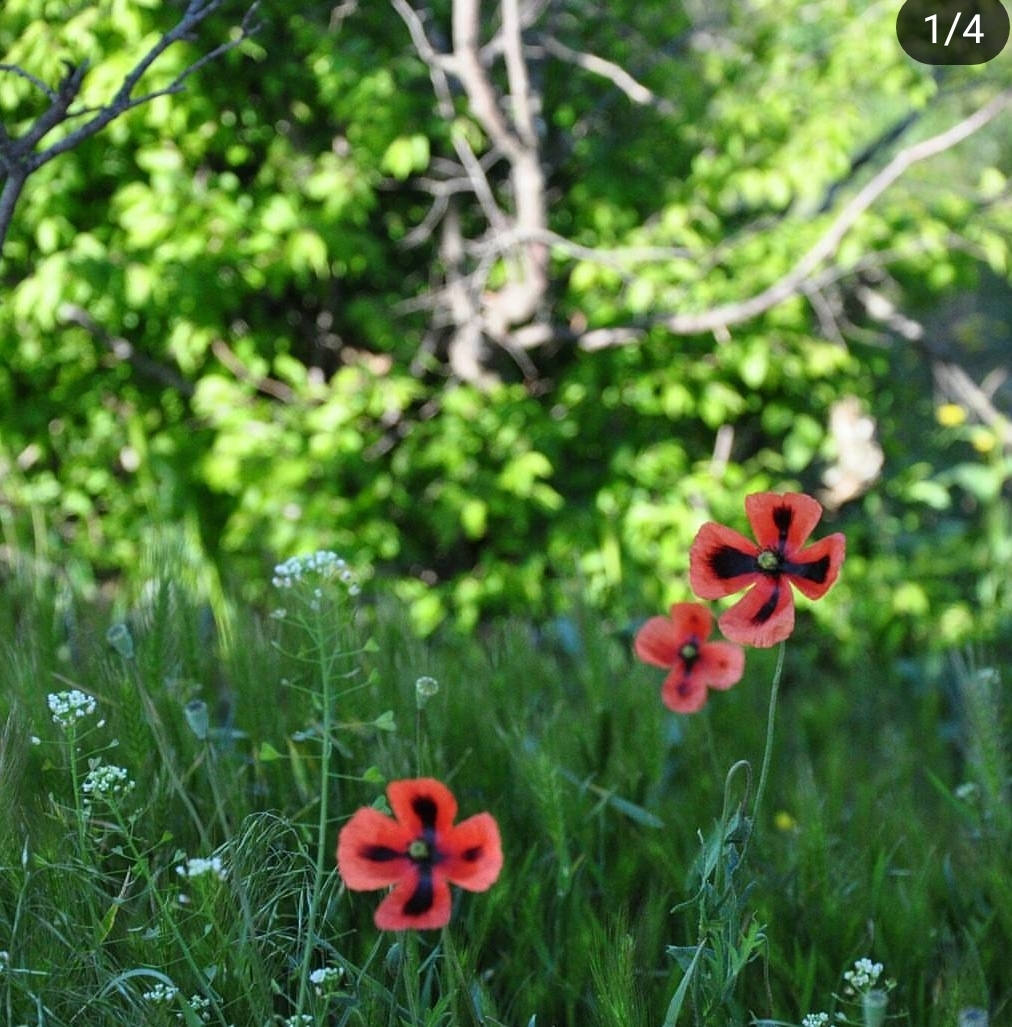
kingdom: Plantae
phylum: Tracheophyta
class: Magnoliopsida
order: Ranunculales
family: Papaveraceae
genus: Papaver
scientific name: Papaver dubium
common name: Long-headed poppy
